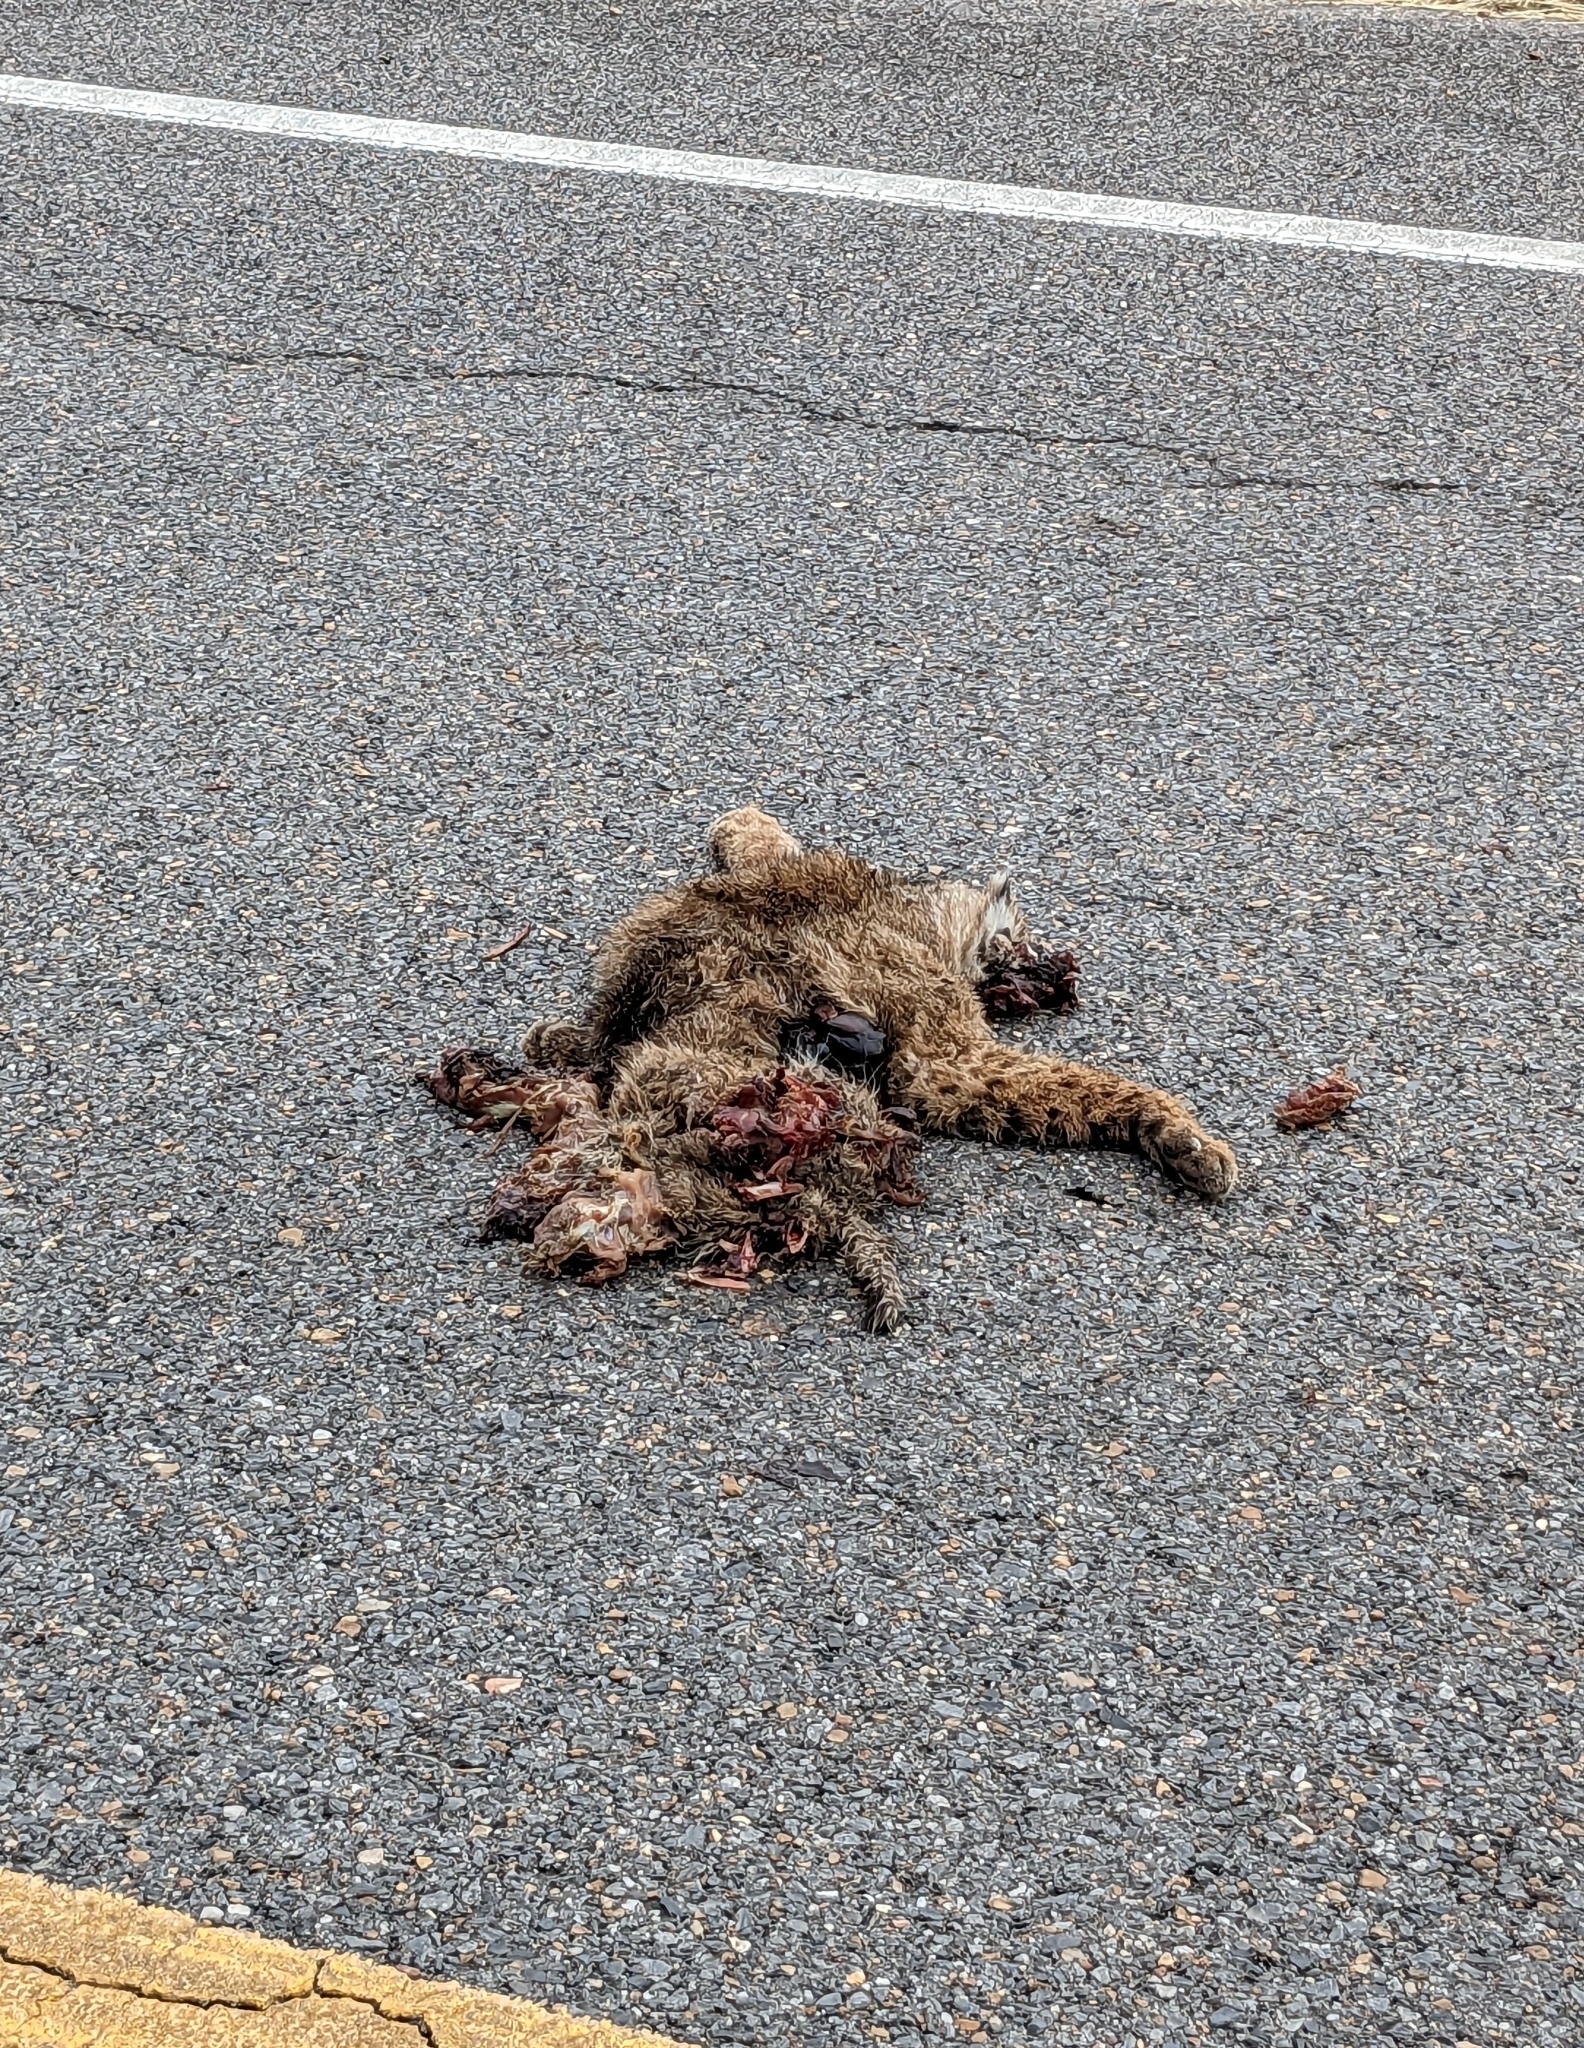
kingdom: Animalia
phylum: Chordata
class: Mammalia
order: Carnivora
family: Felidae
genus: Lynx
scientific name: Lynx rufus
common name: Bobcat
